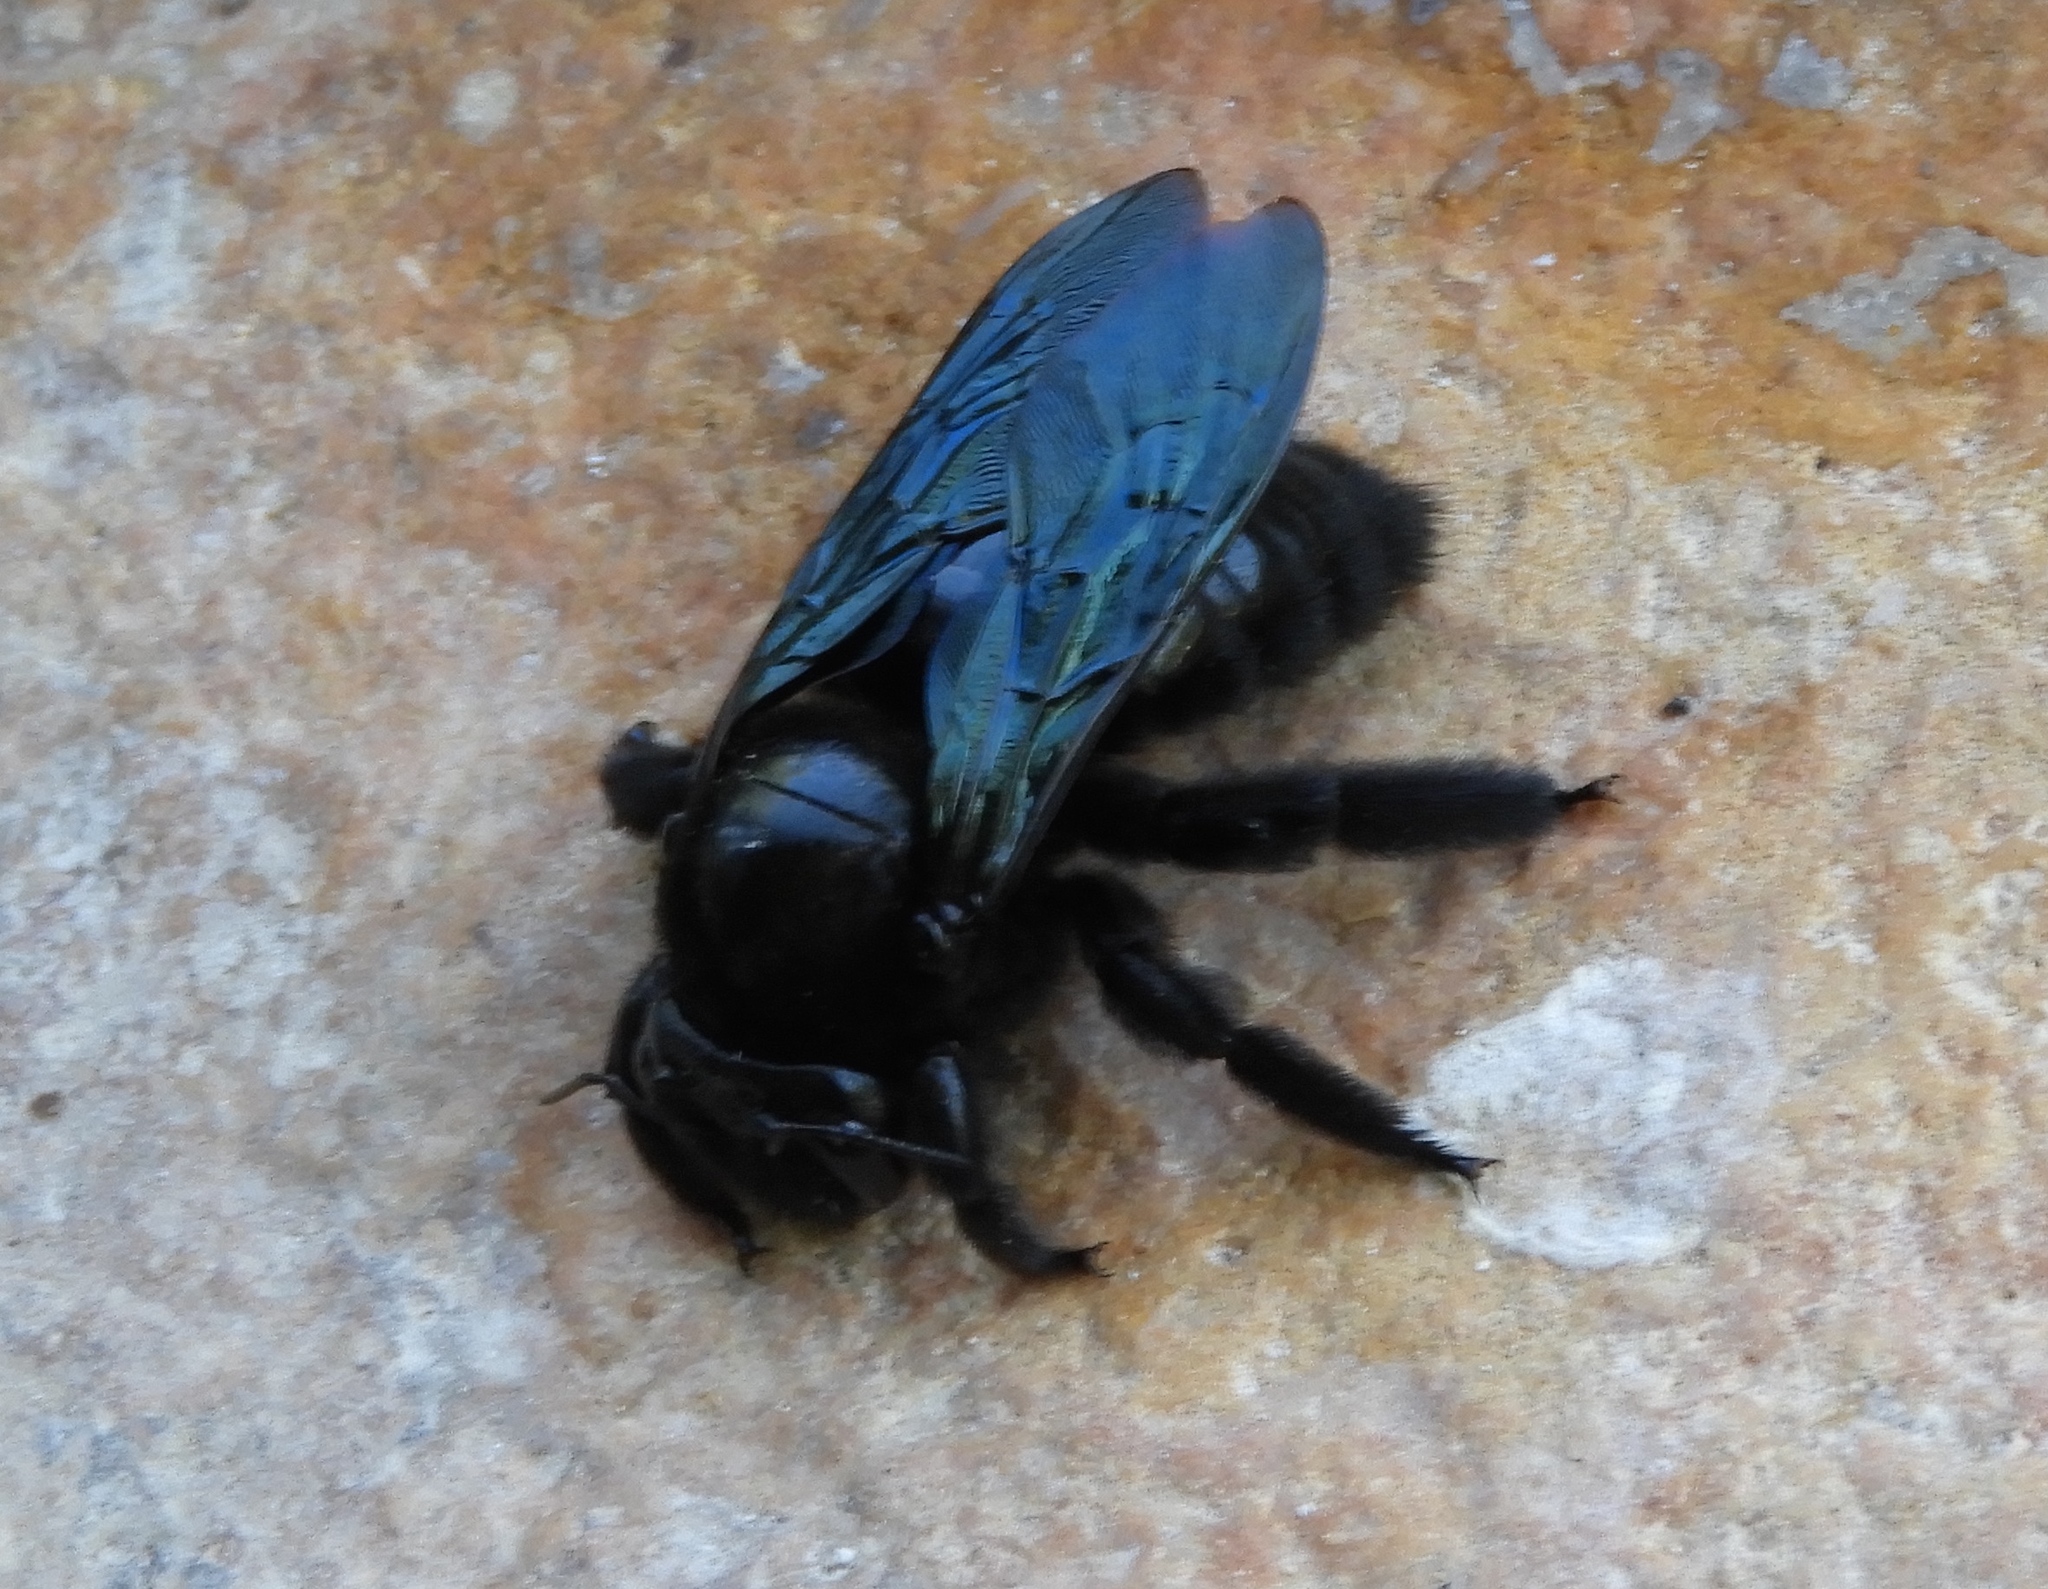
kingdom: Animalia
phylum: Arthropoda
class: Insecta
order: Hymenoptera
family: Apidae
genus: Xylocopa
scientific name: Xylocopa fimbriata
